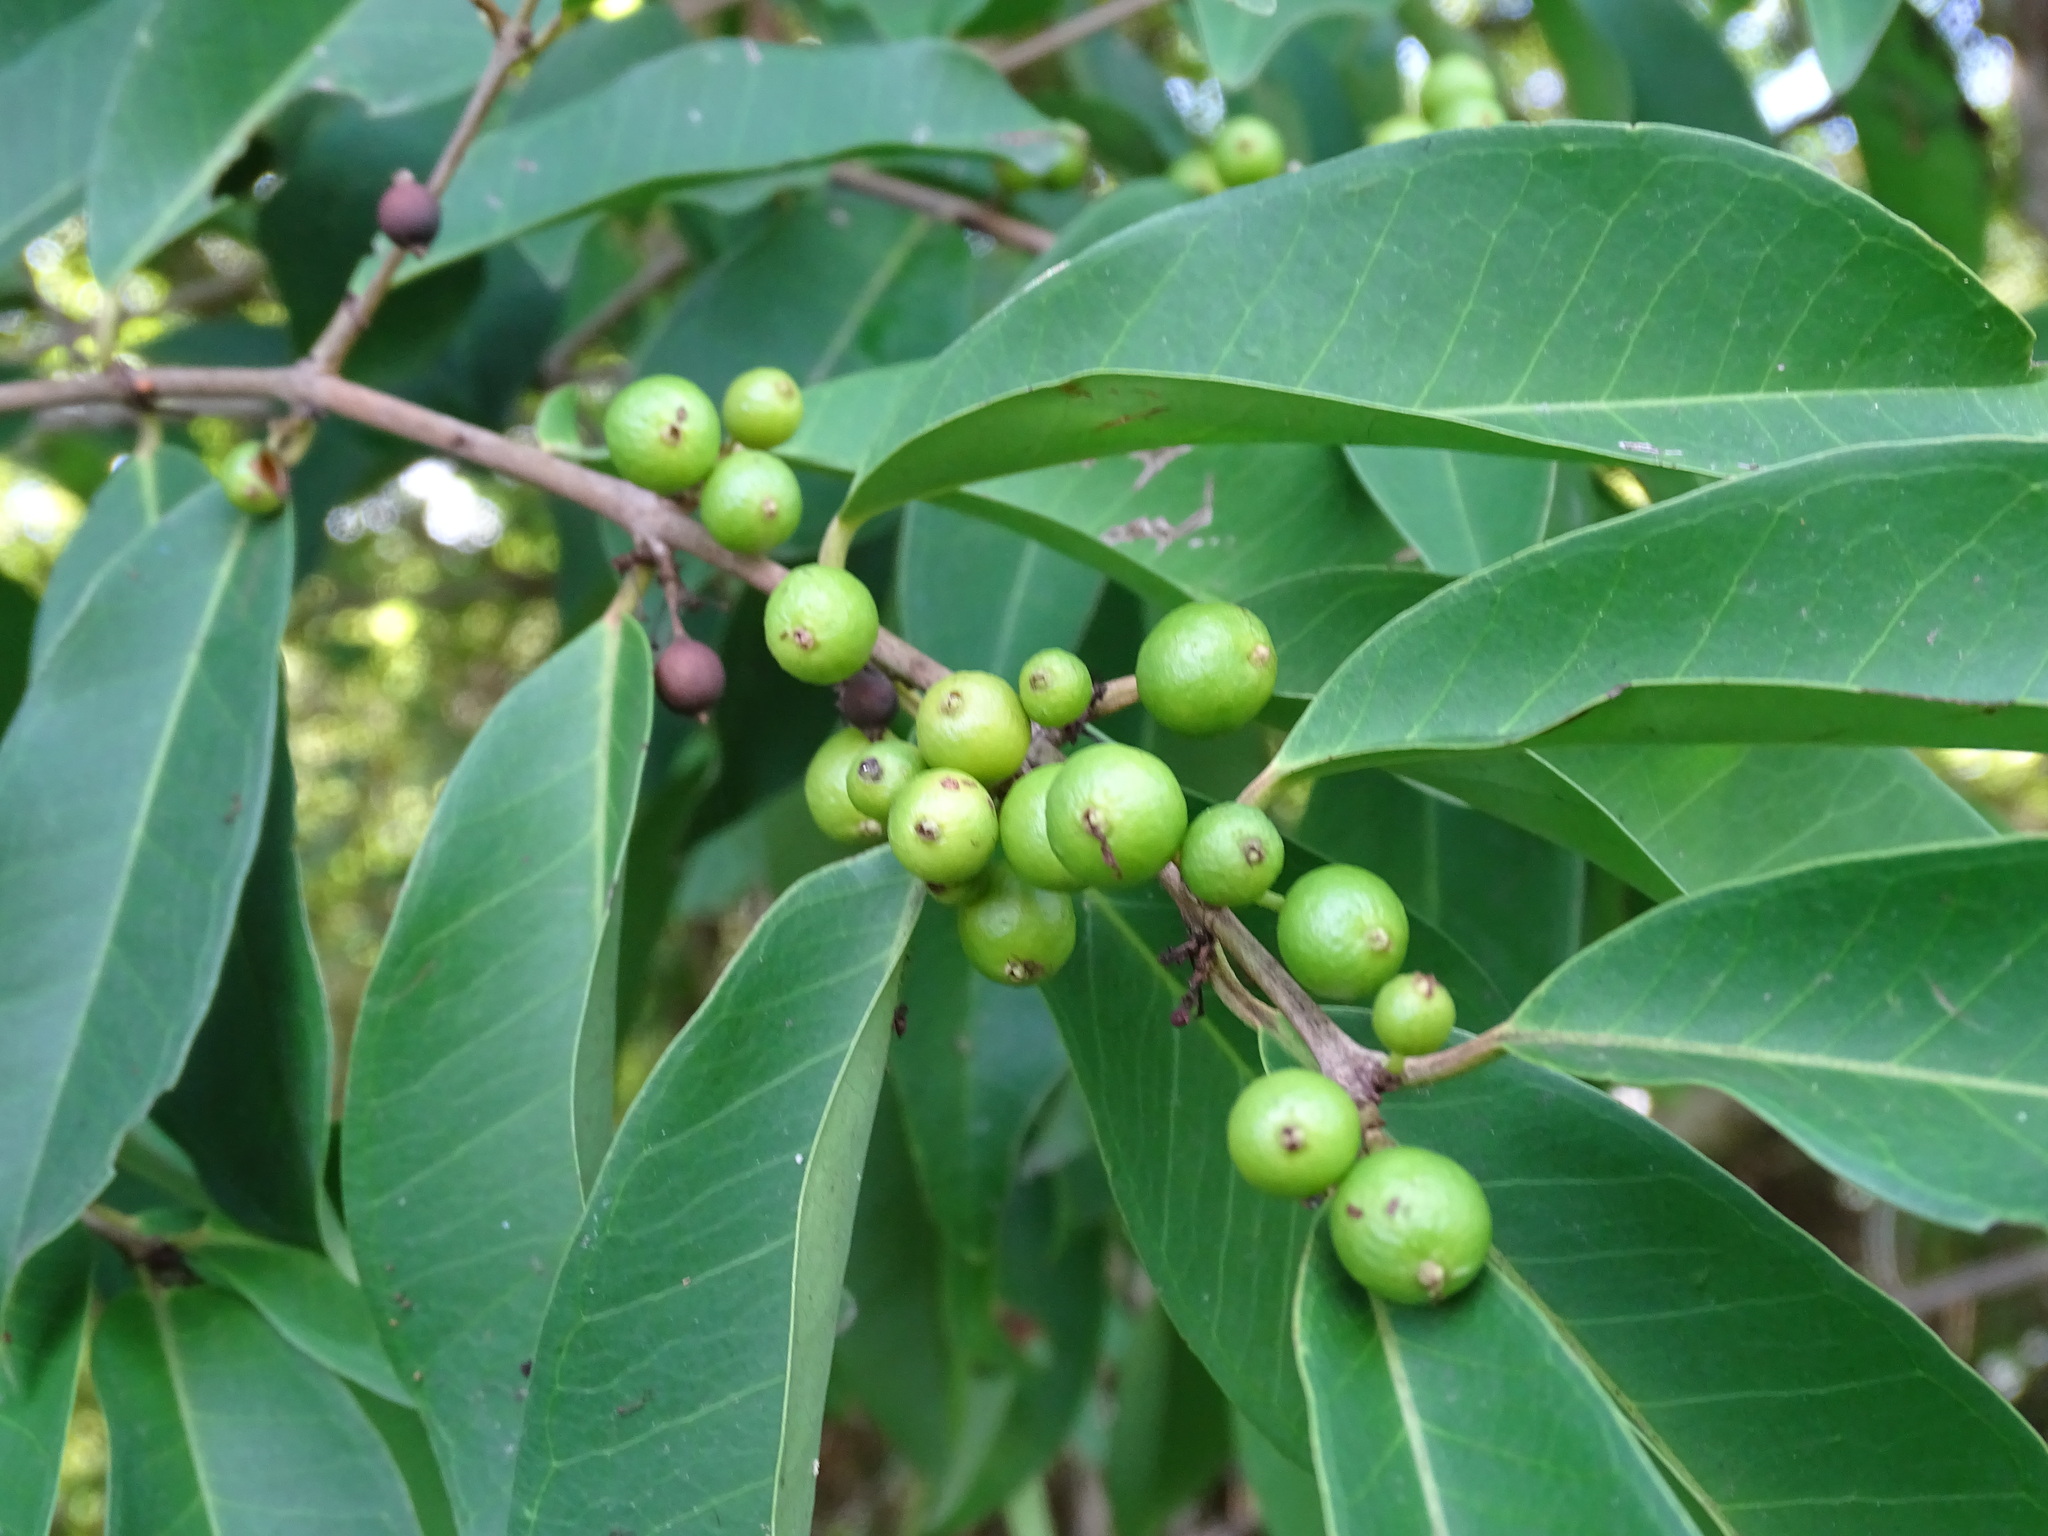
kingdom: Plantae
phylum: Tracheophyta
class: Magnoliopsida
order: Myrtales
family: Myrtaceae
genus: Eugenia
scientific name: Eugenia oerstediana
